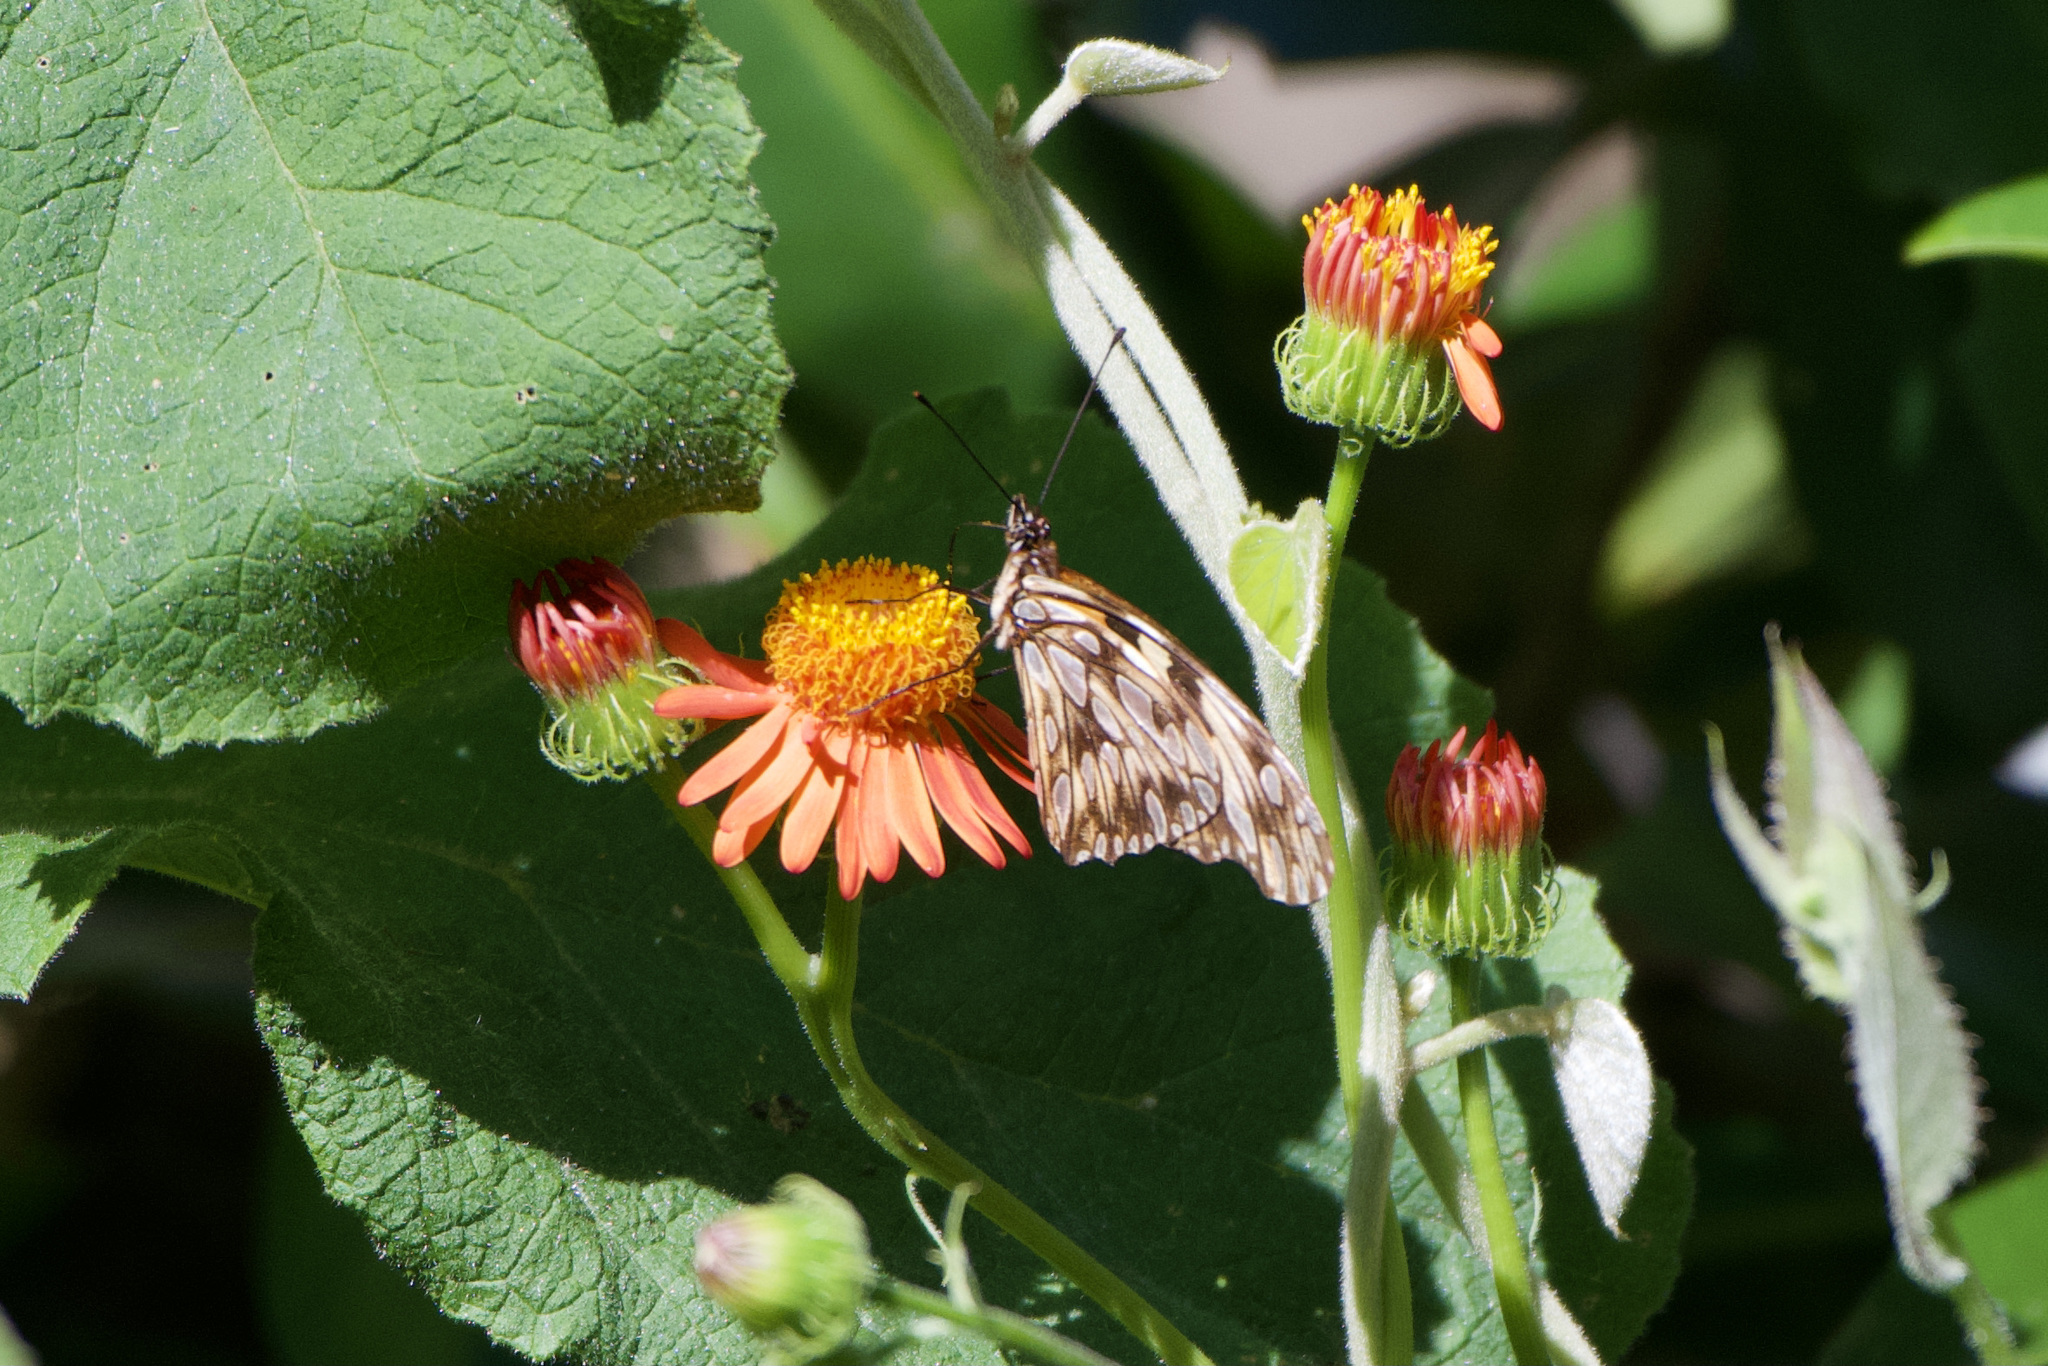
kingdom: Animalia
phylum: Arthropoda
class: Insecta
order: Lepidoptera
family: Nymphalidae
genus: Dione
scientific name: Dione juno
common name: Juno silverspot
